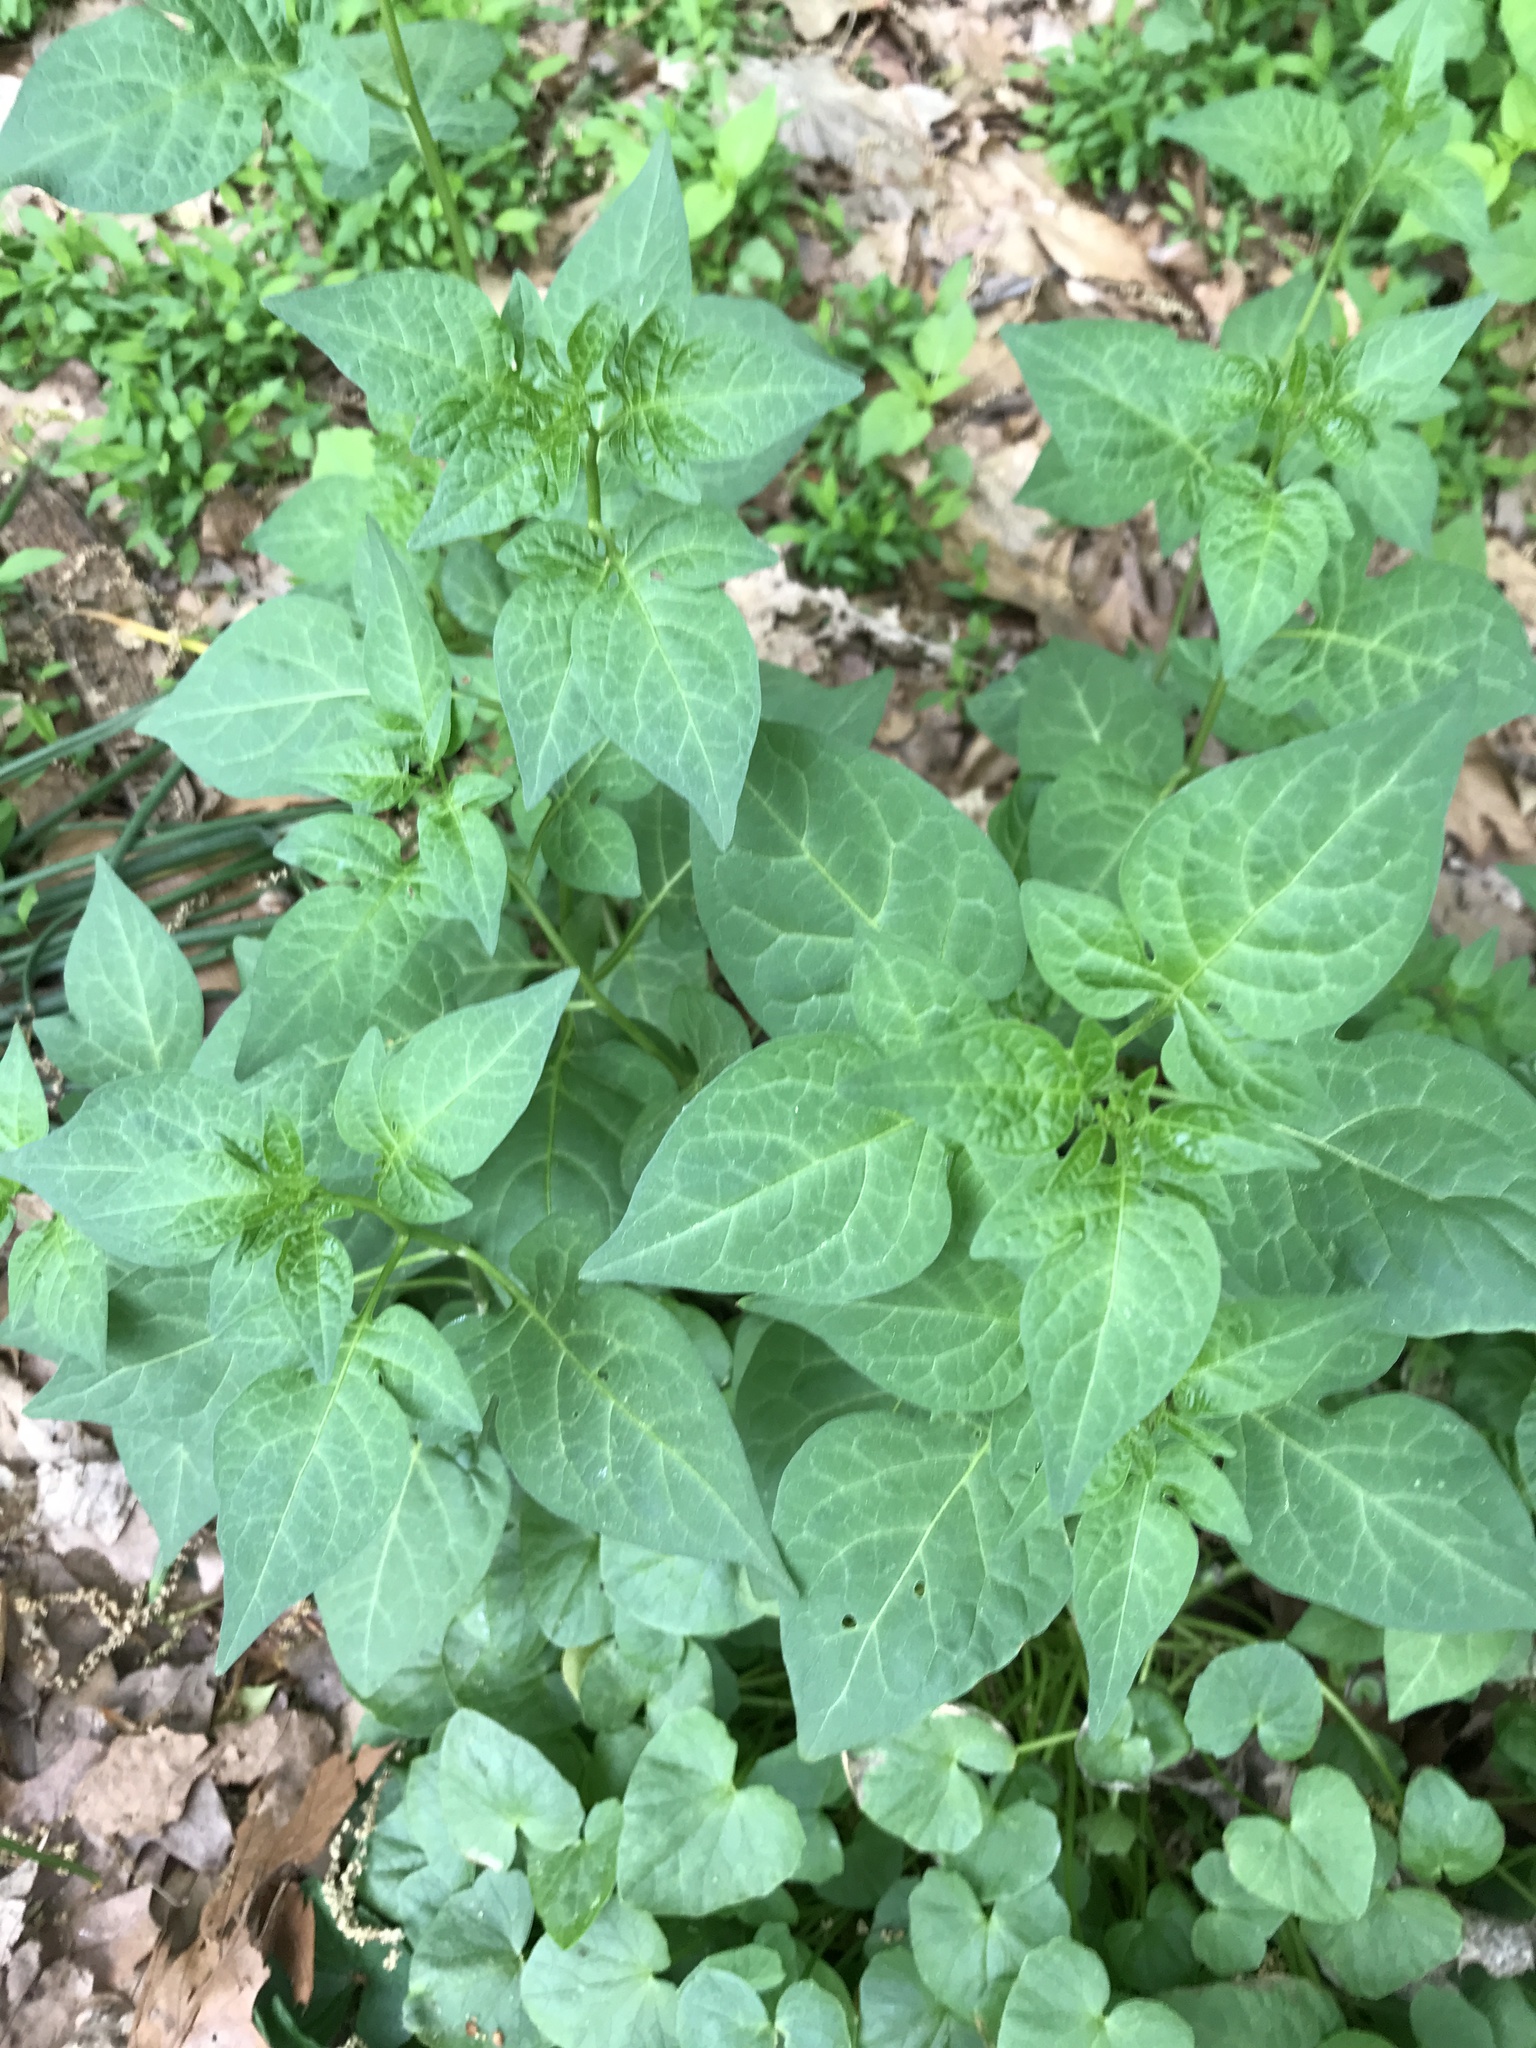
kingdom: Plantae
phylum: Tracheophyta
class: Magnoliopsida
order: Solanales
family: Solanaceae
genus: Solanum
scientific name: Solanum dulcamara
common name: Climbing nightshade
